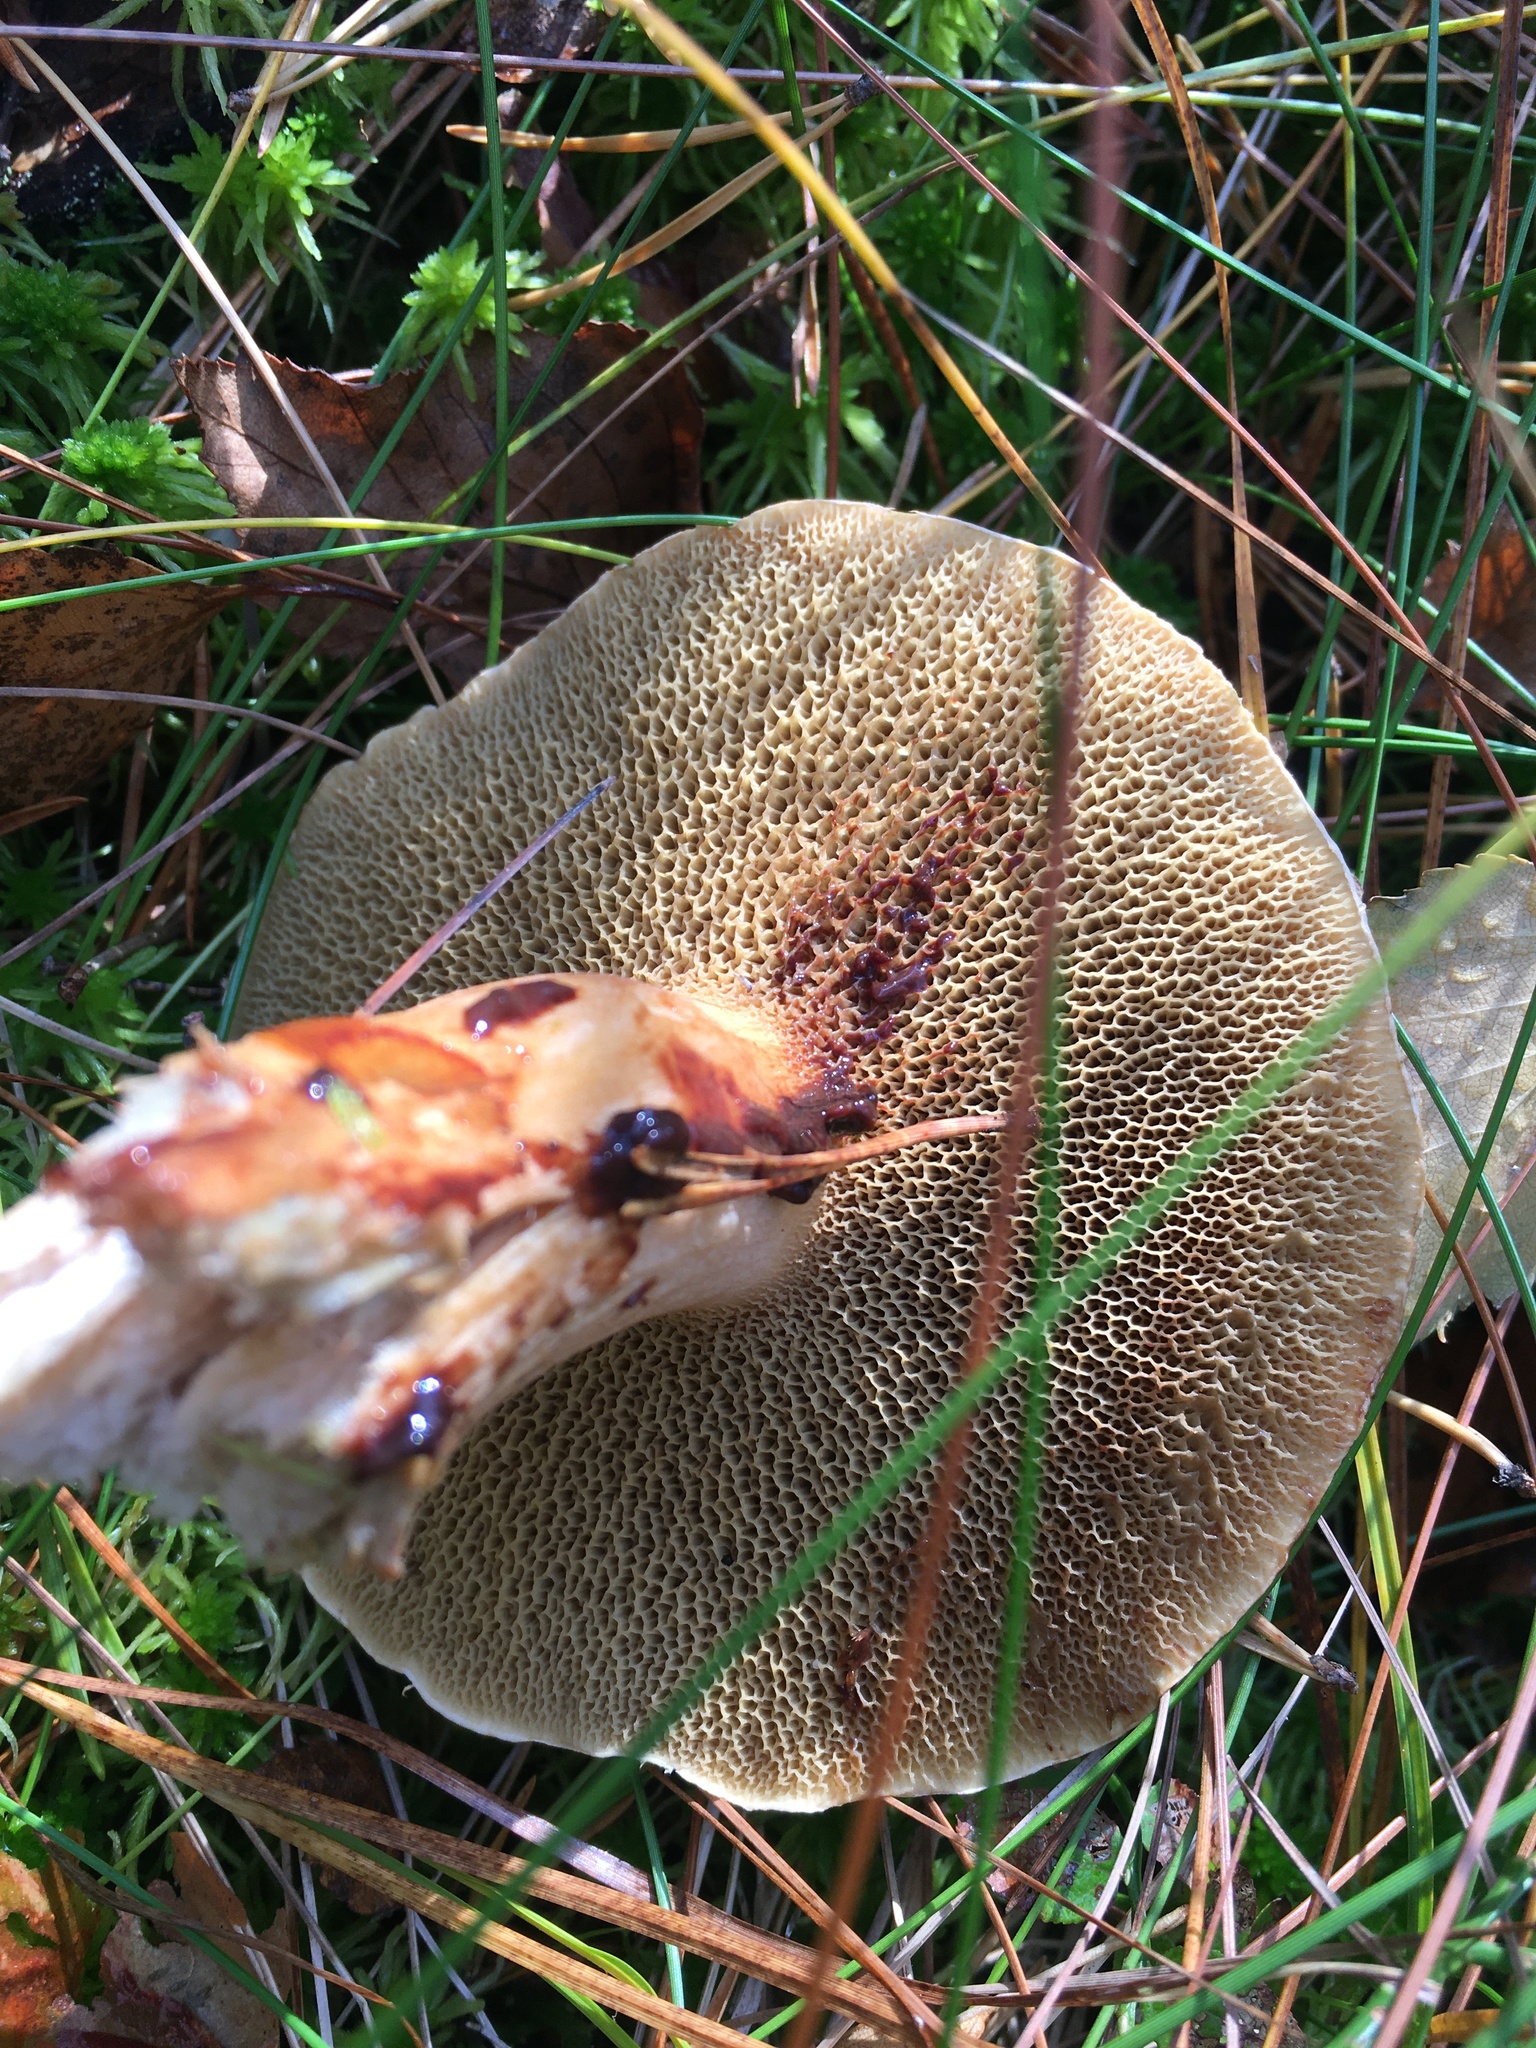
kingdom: Fungi
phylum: Basidiomycota
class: Agaricomycetes
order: Boletales
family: Suillaceae
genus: Suillus
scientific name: Suillus bovinus
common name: Bovine bolete
